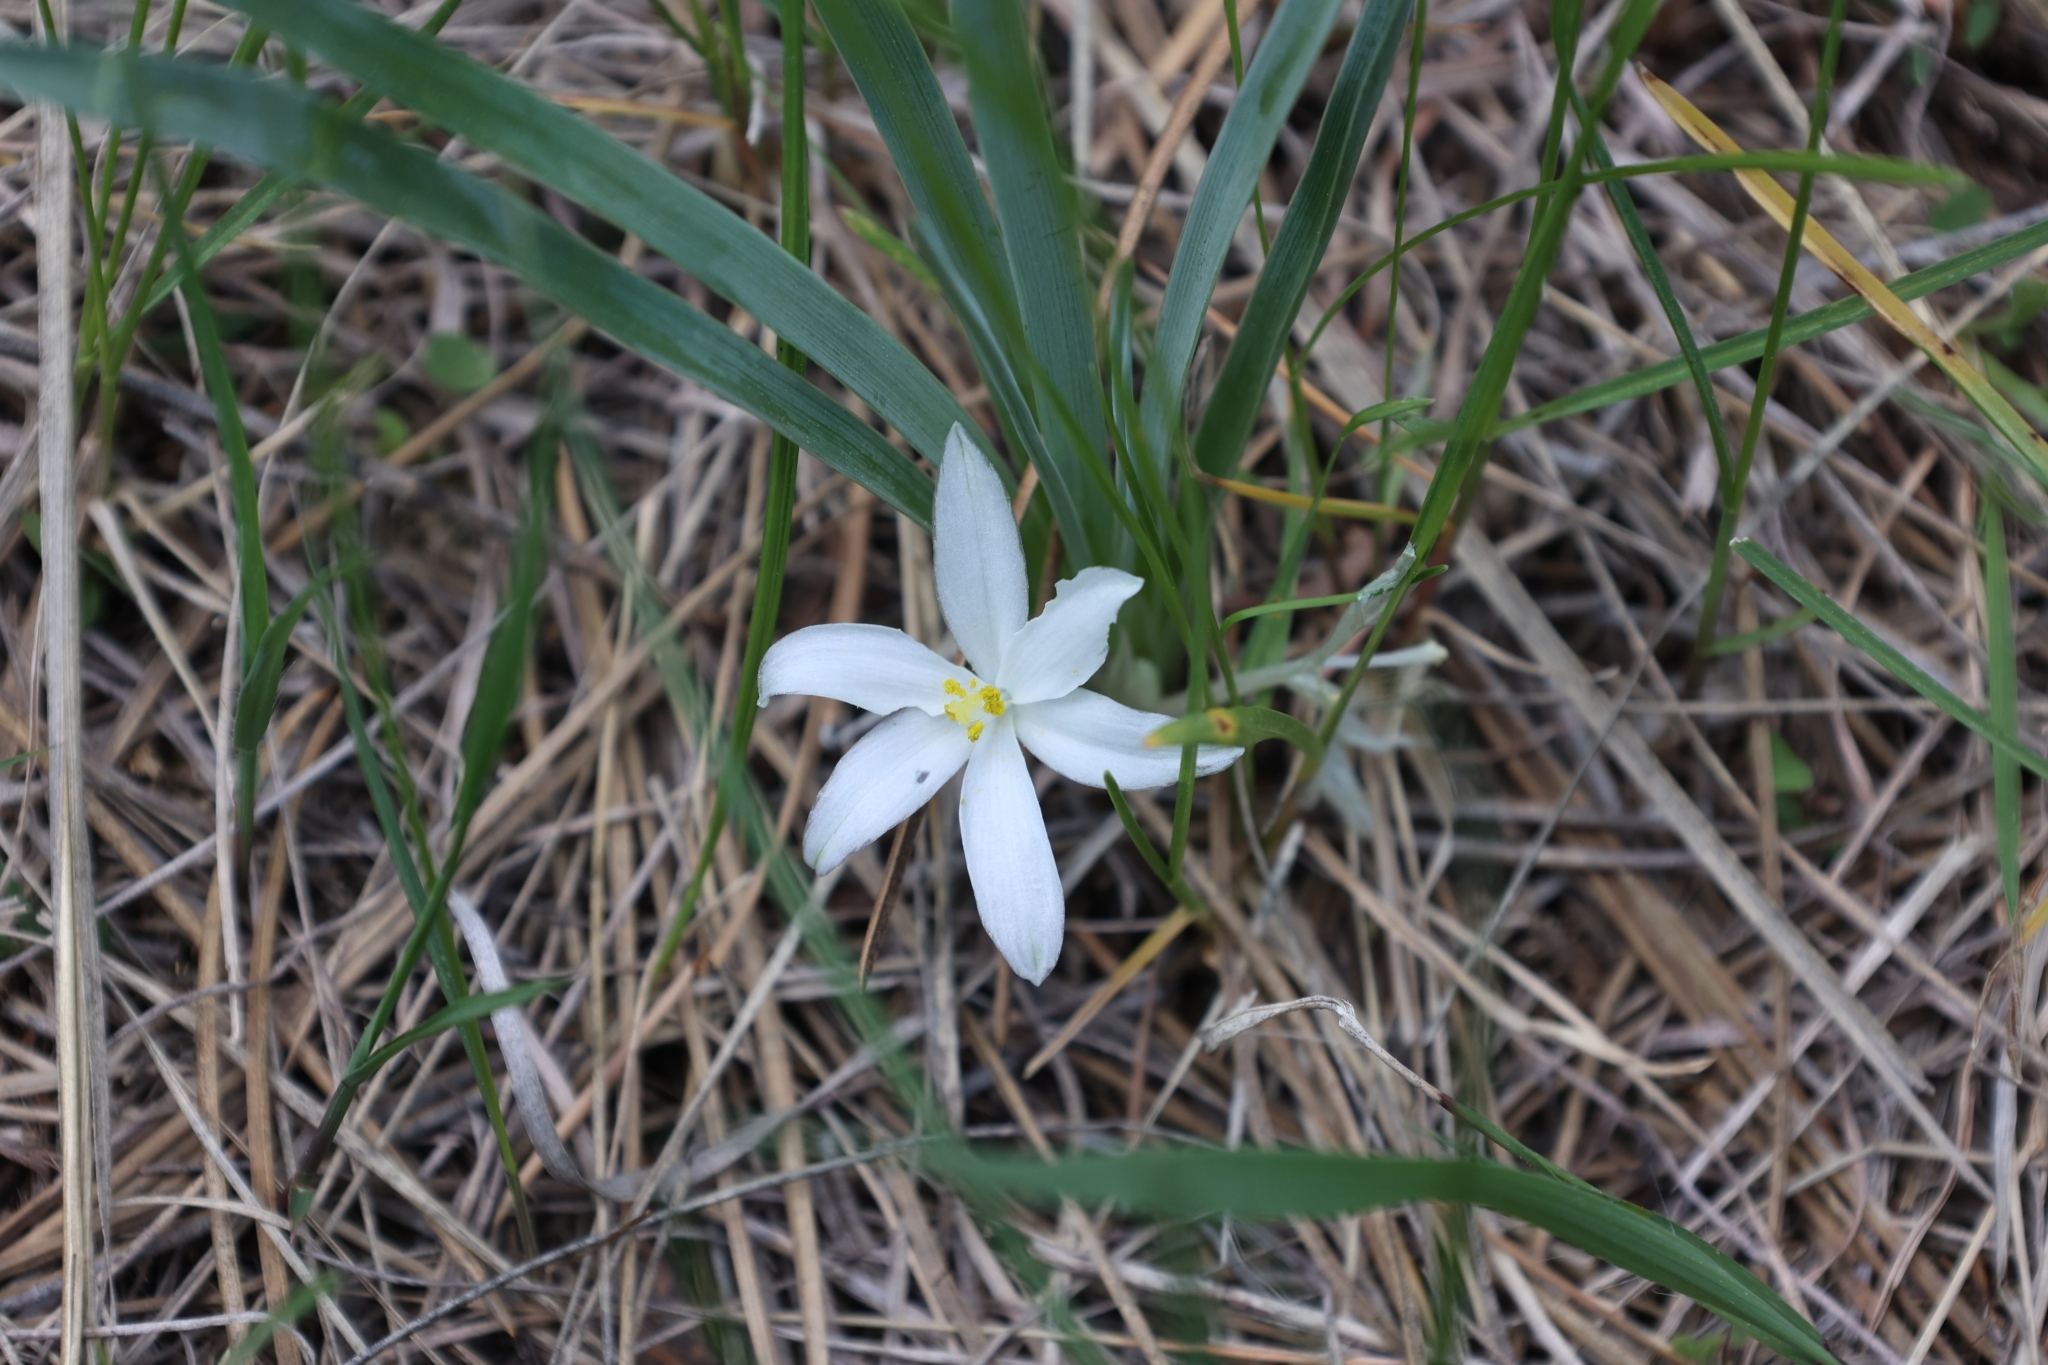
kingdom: Plantae
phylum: Tracheophyta
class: Liliopsida
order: Asparagales
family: Asparagaceae
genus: Leucocrinum
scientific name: Leucocrinum montanum
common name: Mountain-lily
